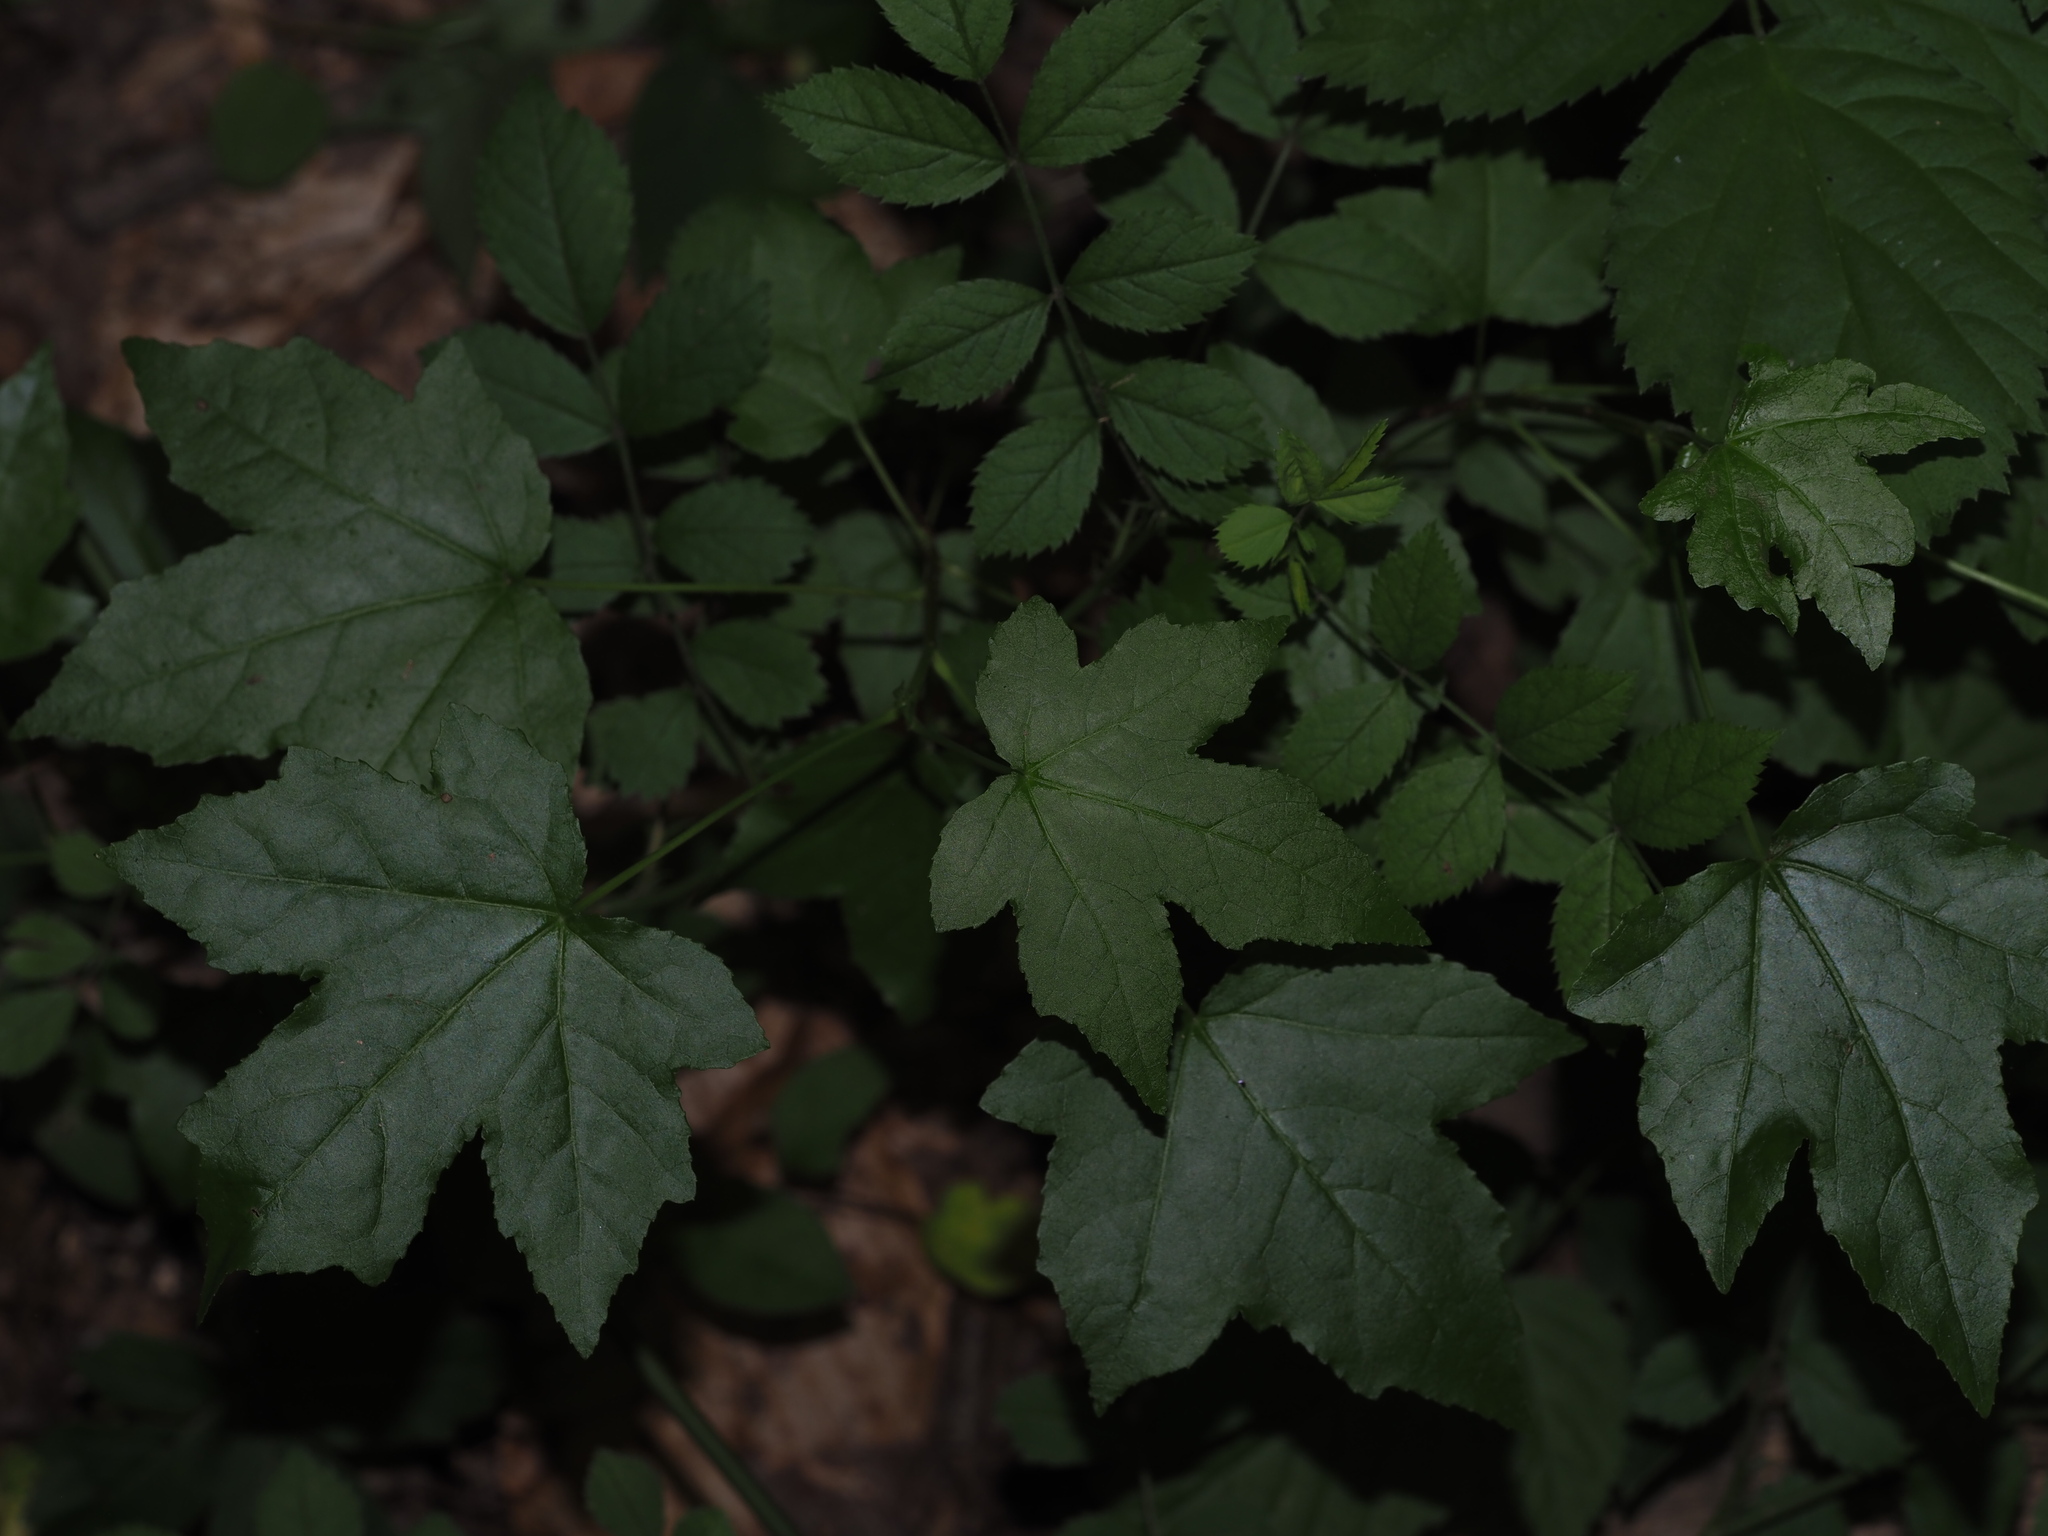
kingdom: Plantae
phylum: Tracheophyta
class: Magnoliopsida
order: Saxifragales
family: Altingiaceae
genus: Liquidambar
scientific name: Liquidambar styraciflua
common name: Sweet gum
